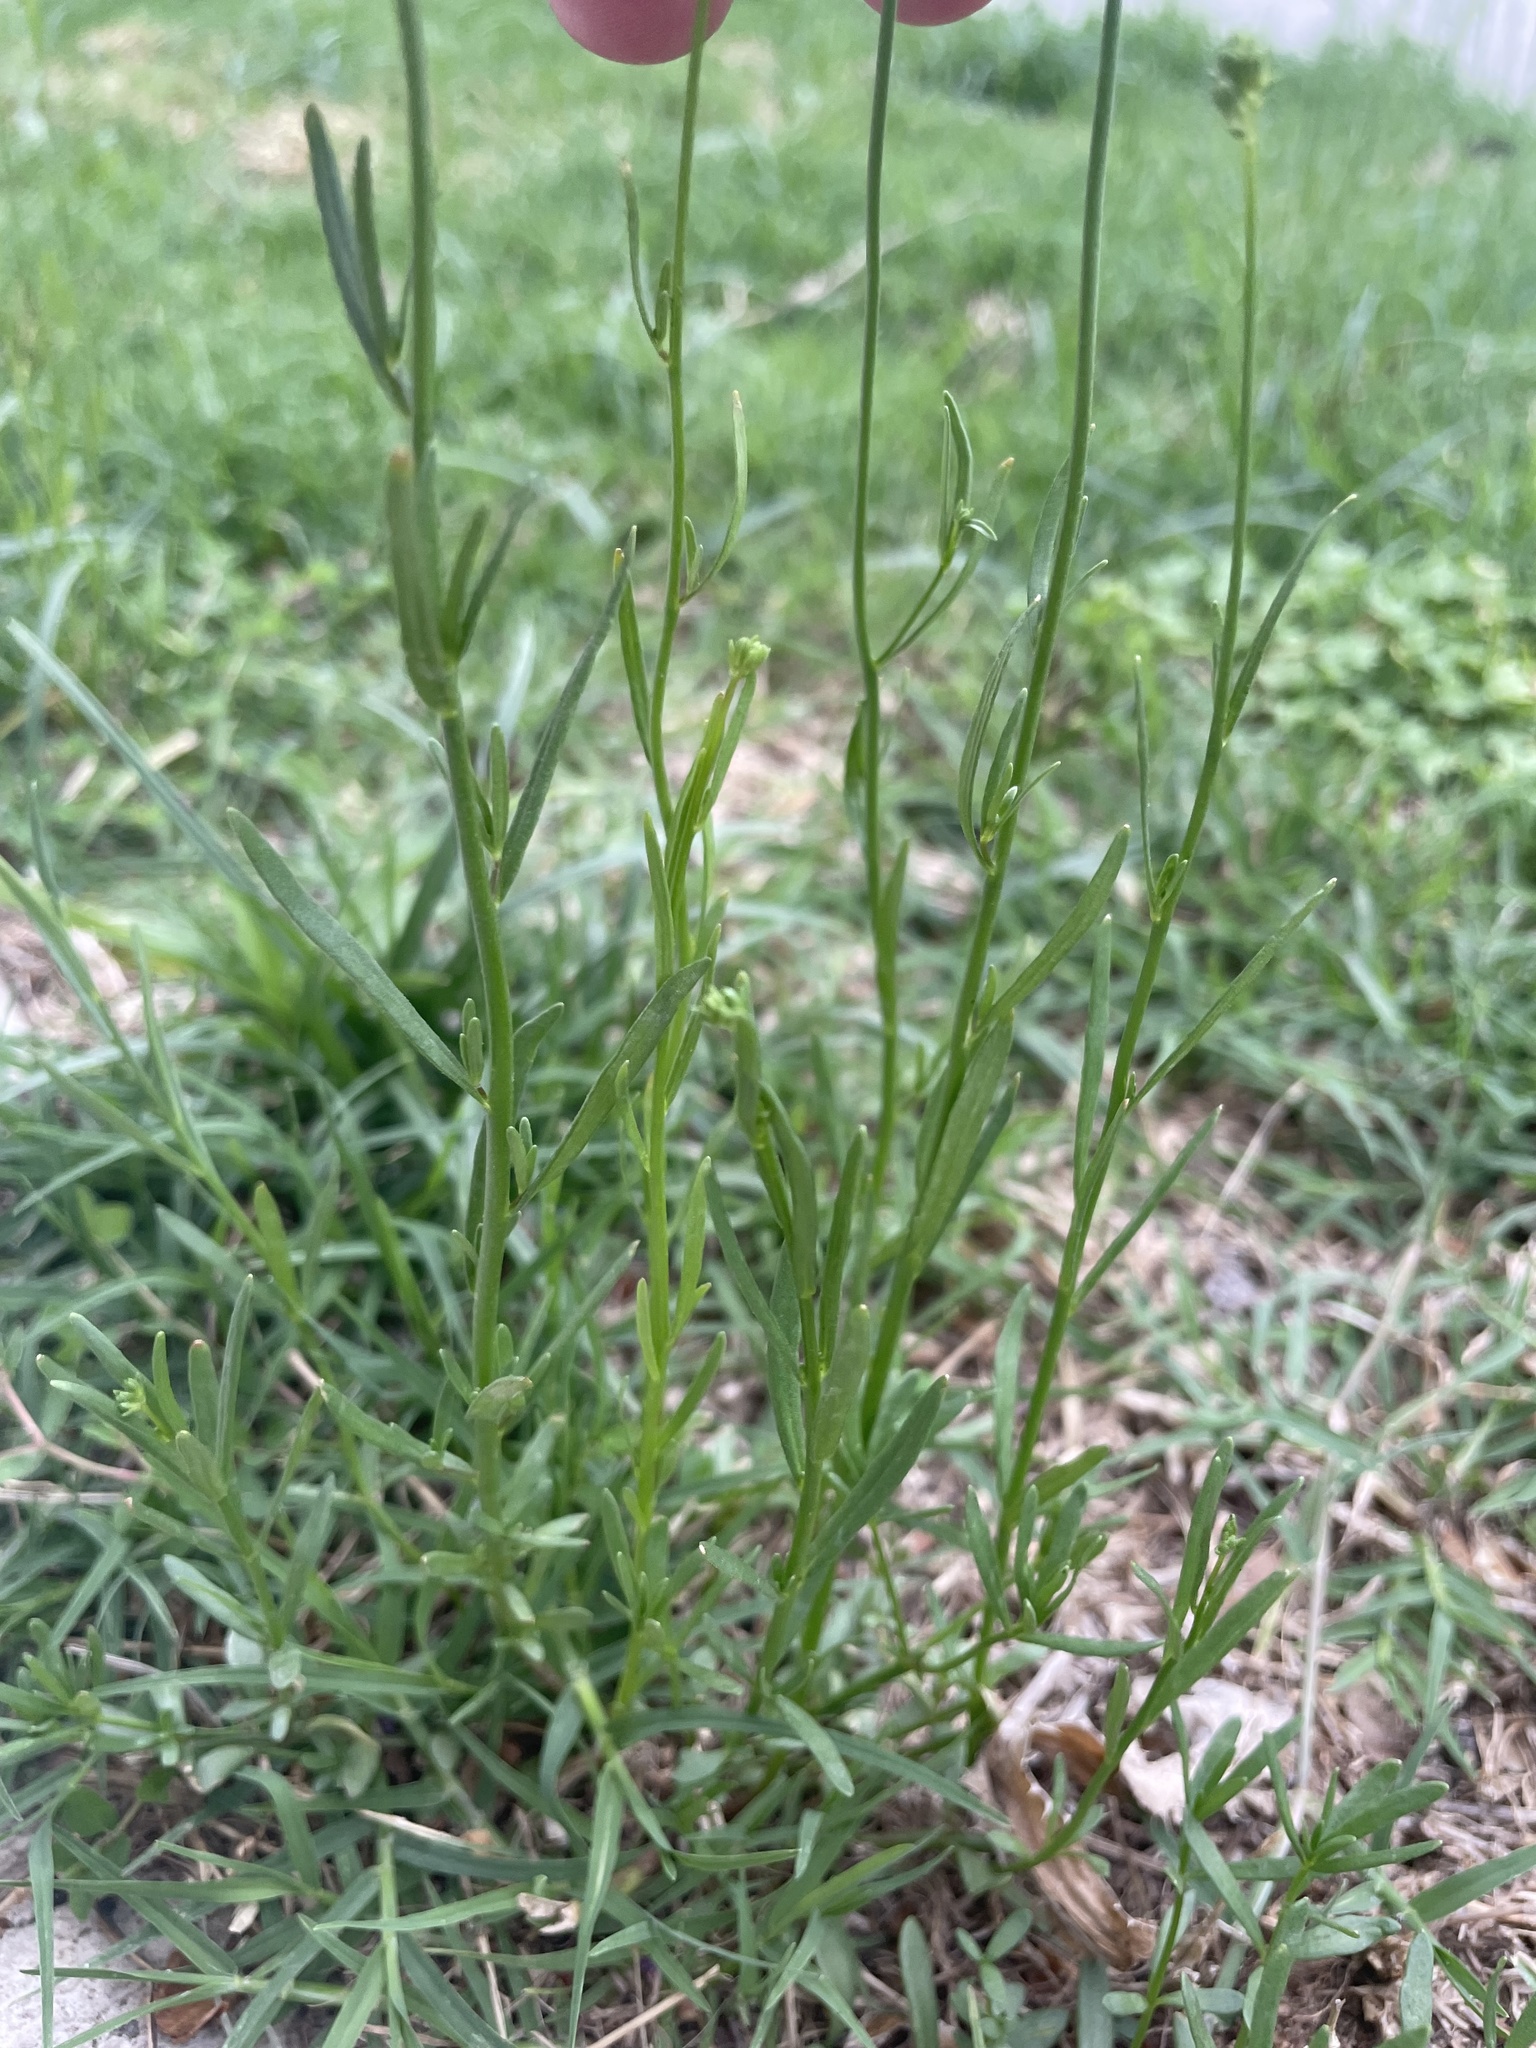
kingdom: Plantae
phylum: Tracheophyta
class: Magnoliopsida
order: Lamiales
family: Plantaginaceae
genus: Nuttallanthus
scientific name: Nuttallanthus texanus
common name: Texas toadflax
